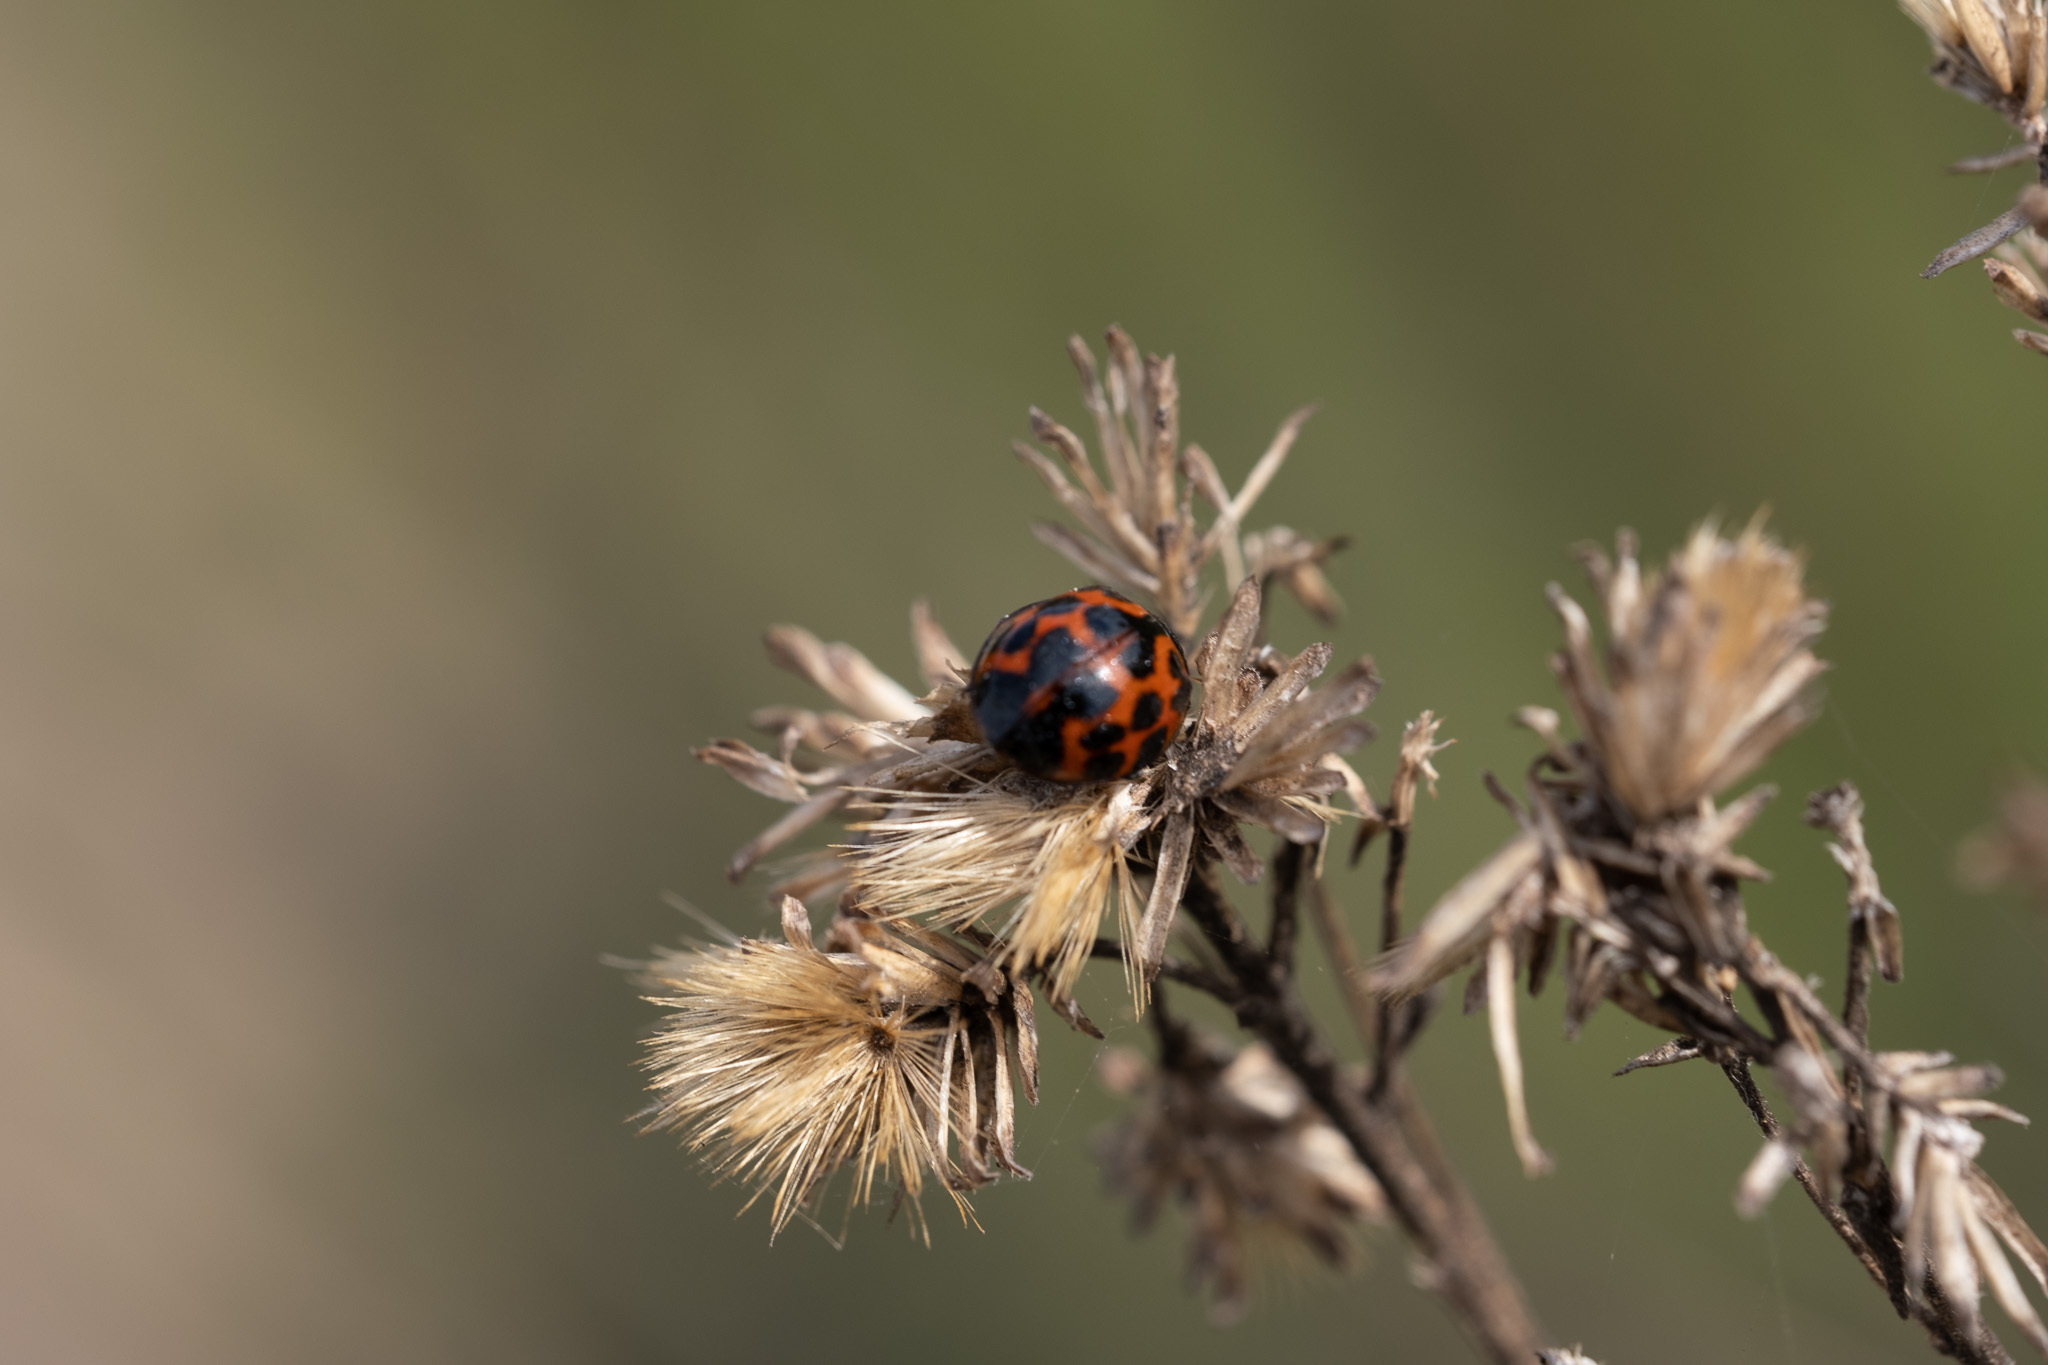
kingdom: Animalia
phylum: Arthropoda
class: Insecta
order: Coleoptera
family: Coccinellidae
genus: Harmonia
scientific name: Harmonia axyridis
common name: Harlequin ladybird
